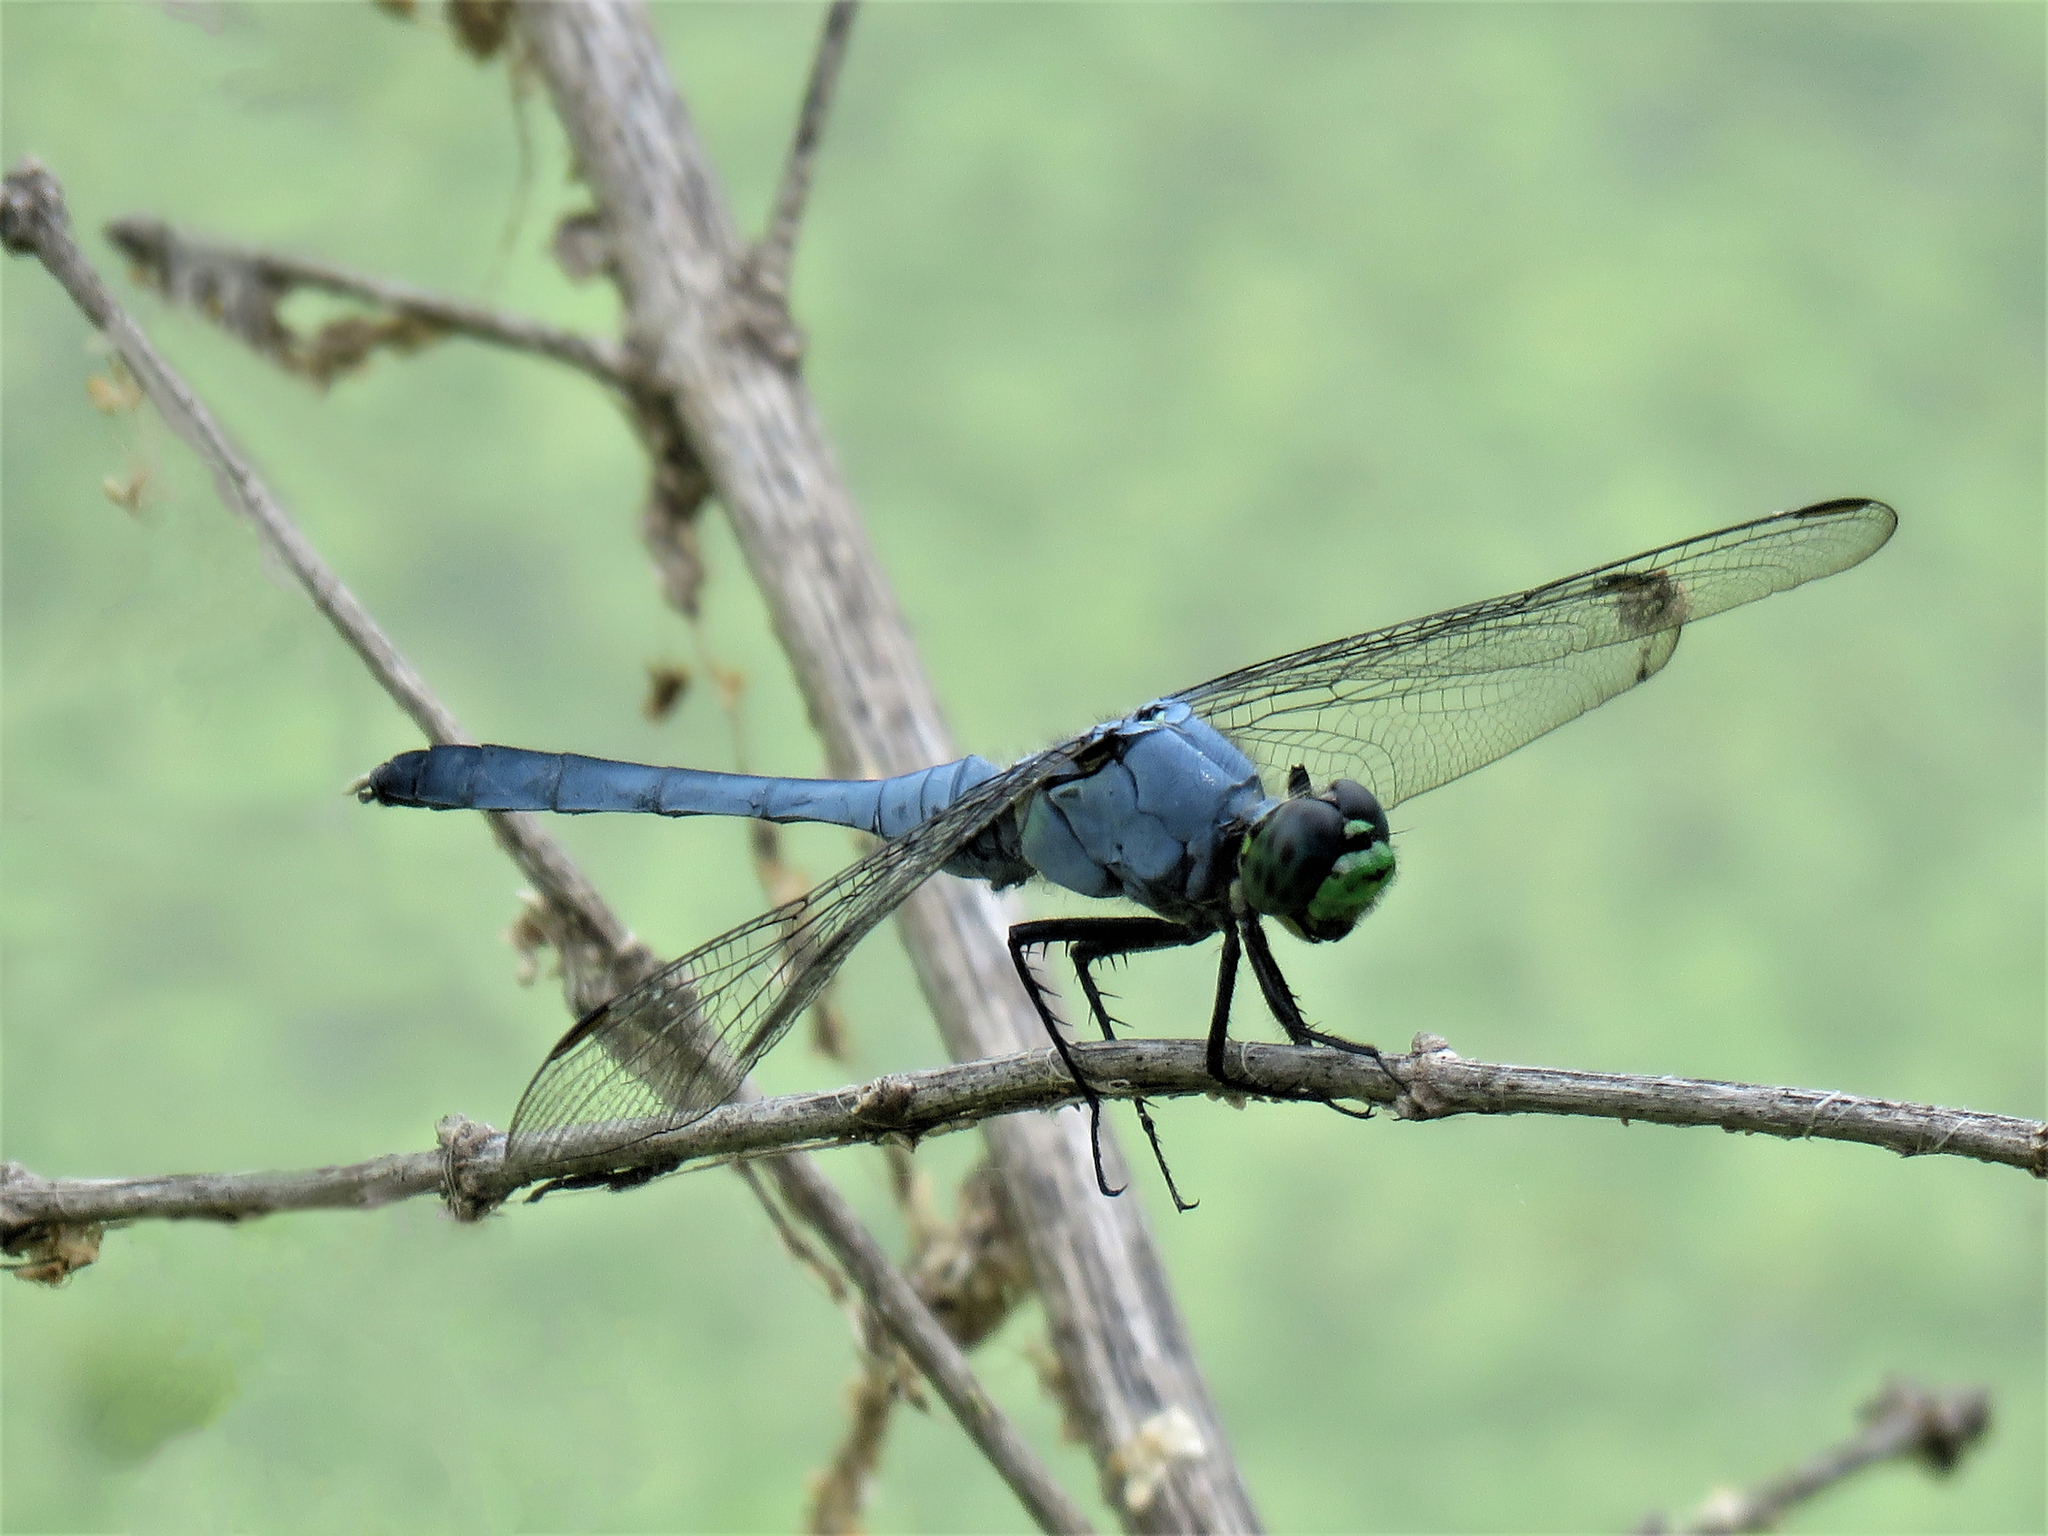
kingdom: Animalia
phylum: Arthropoda
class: Insecta
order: Odonata
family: Libellulidae
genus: Erythemis
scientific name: Erythemis simplicicollis
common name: Eastern pondhawk
